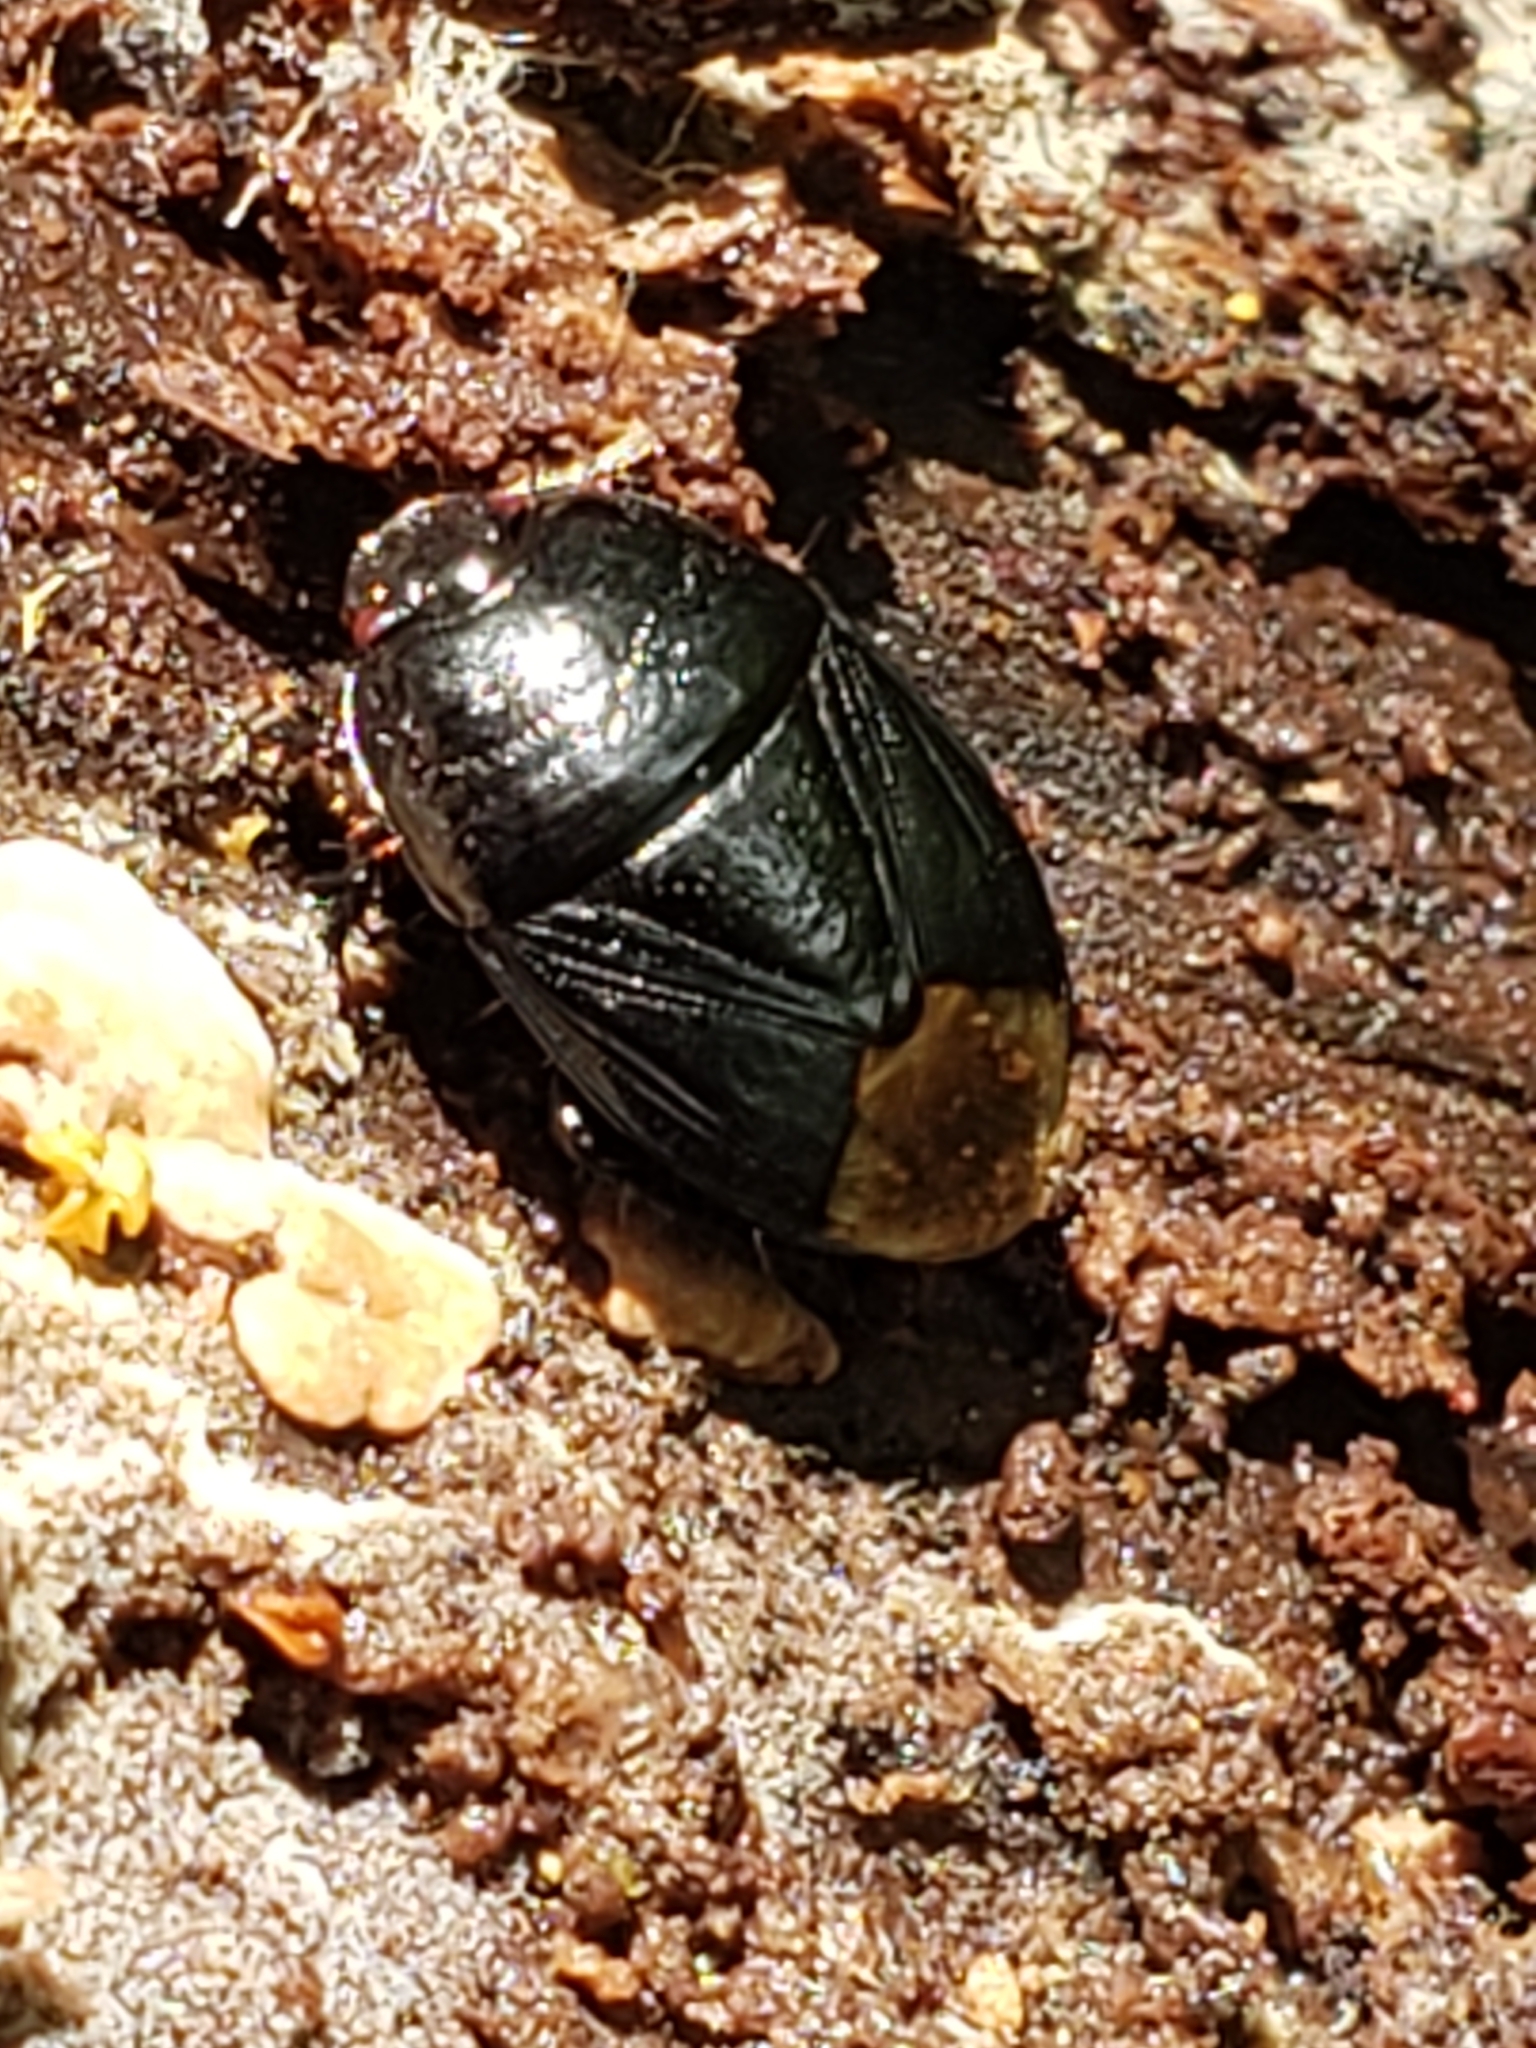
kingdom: Animalia
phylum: Arthropoda
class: Insecta
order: Hemiptera
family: Cydnidae
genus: Pangaeus
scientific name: Pangaeus bilineatus
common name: Burrower bug
